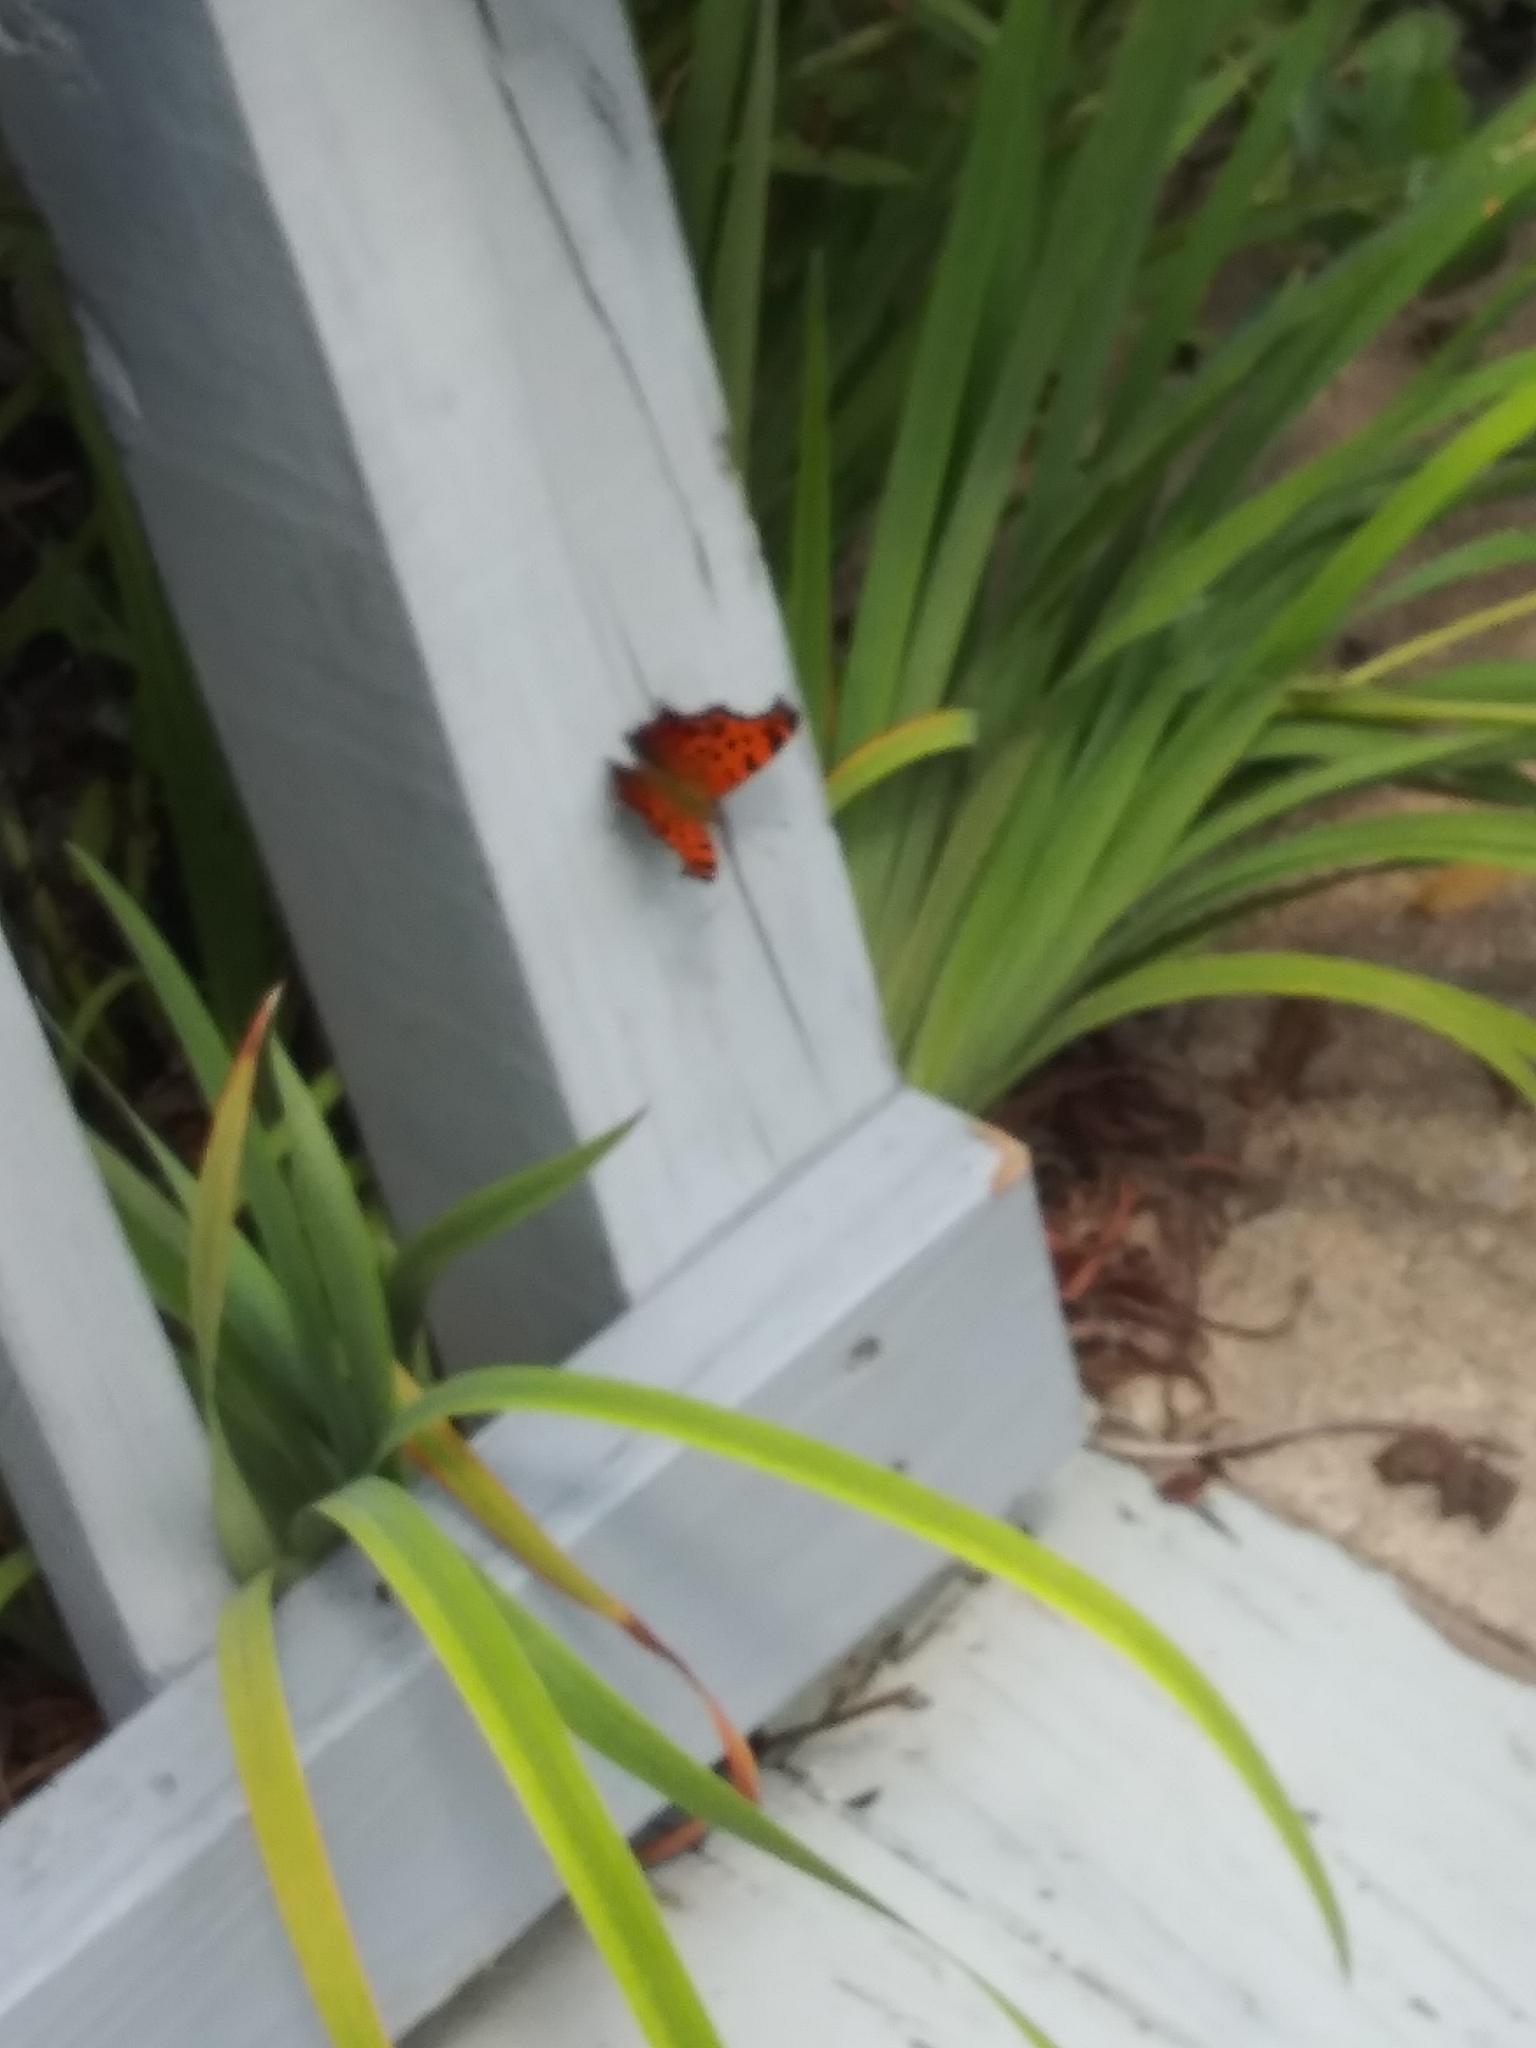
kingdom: Animalia
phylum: Arthropoda
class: Insecta
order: Lepidoptera
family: Nymphalidae
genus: Polygonia
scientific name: Polygonia
